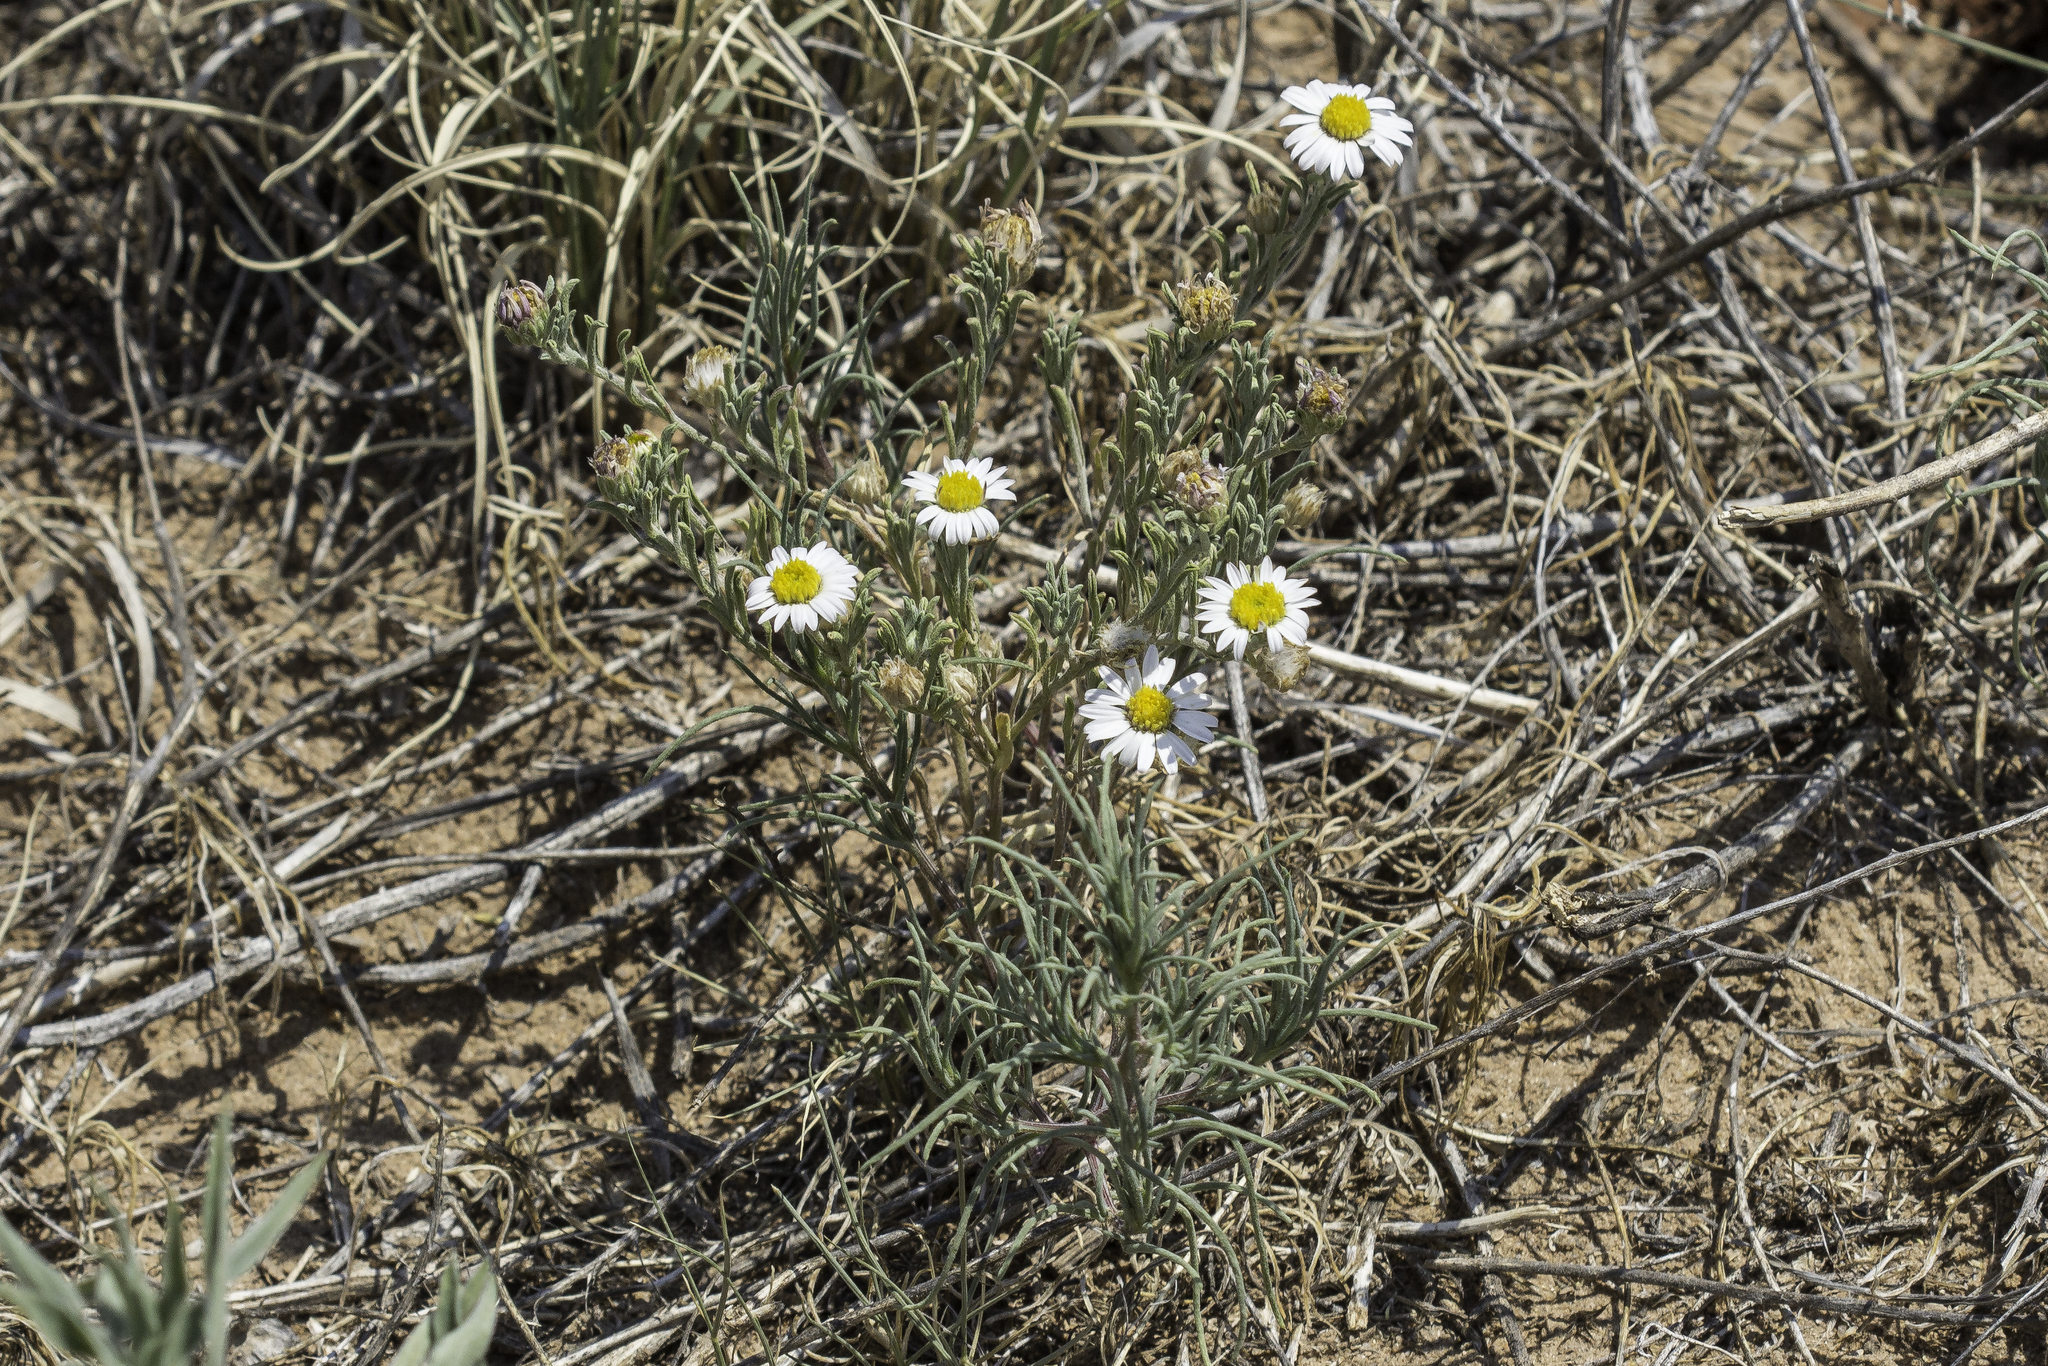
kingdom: Plantae
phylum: Tracheophyta
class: Magnoliopsida
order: Asterales
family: Asteraceae
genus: Chaetopappa
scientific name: Chaetopappa ericoides
